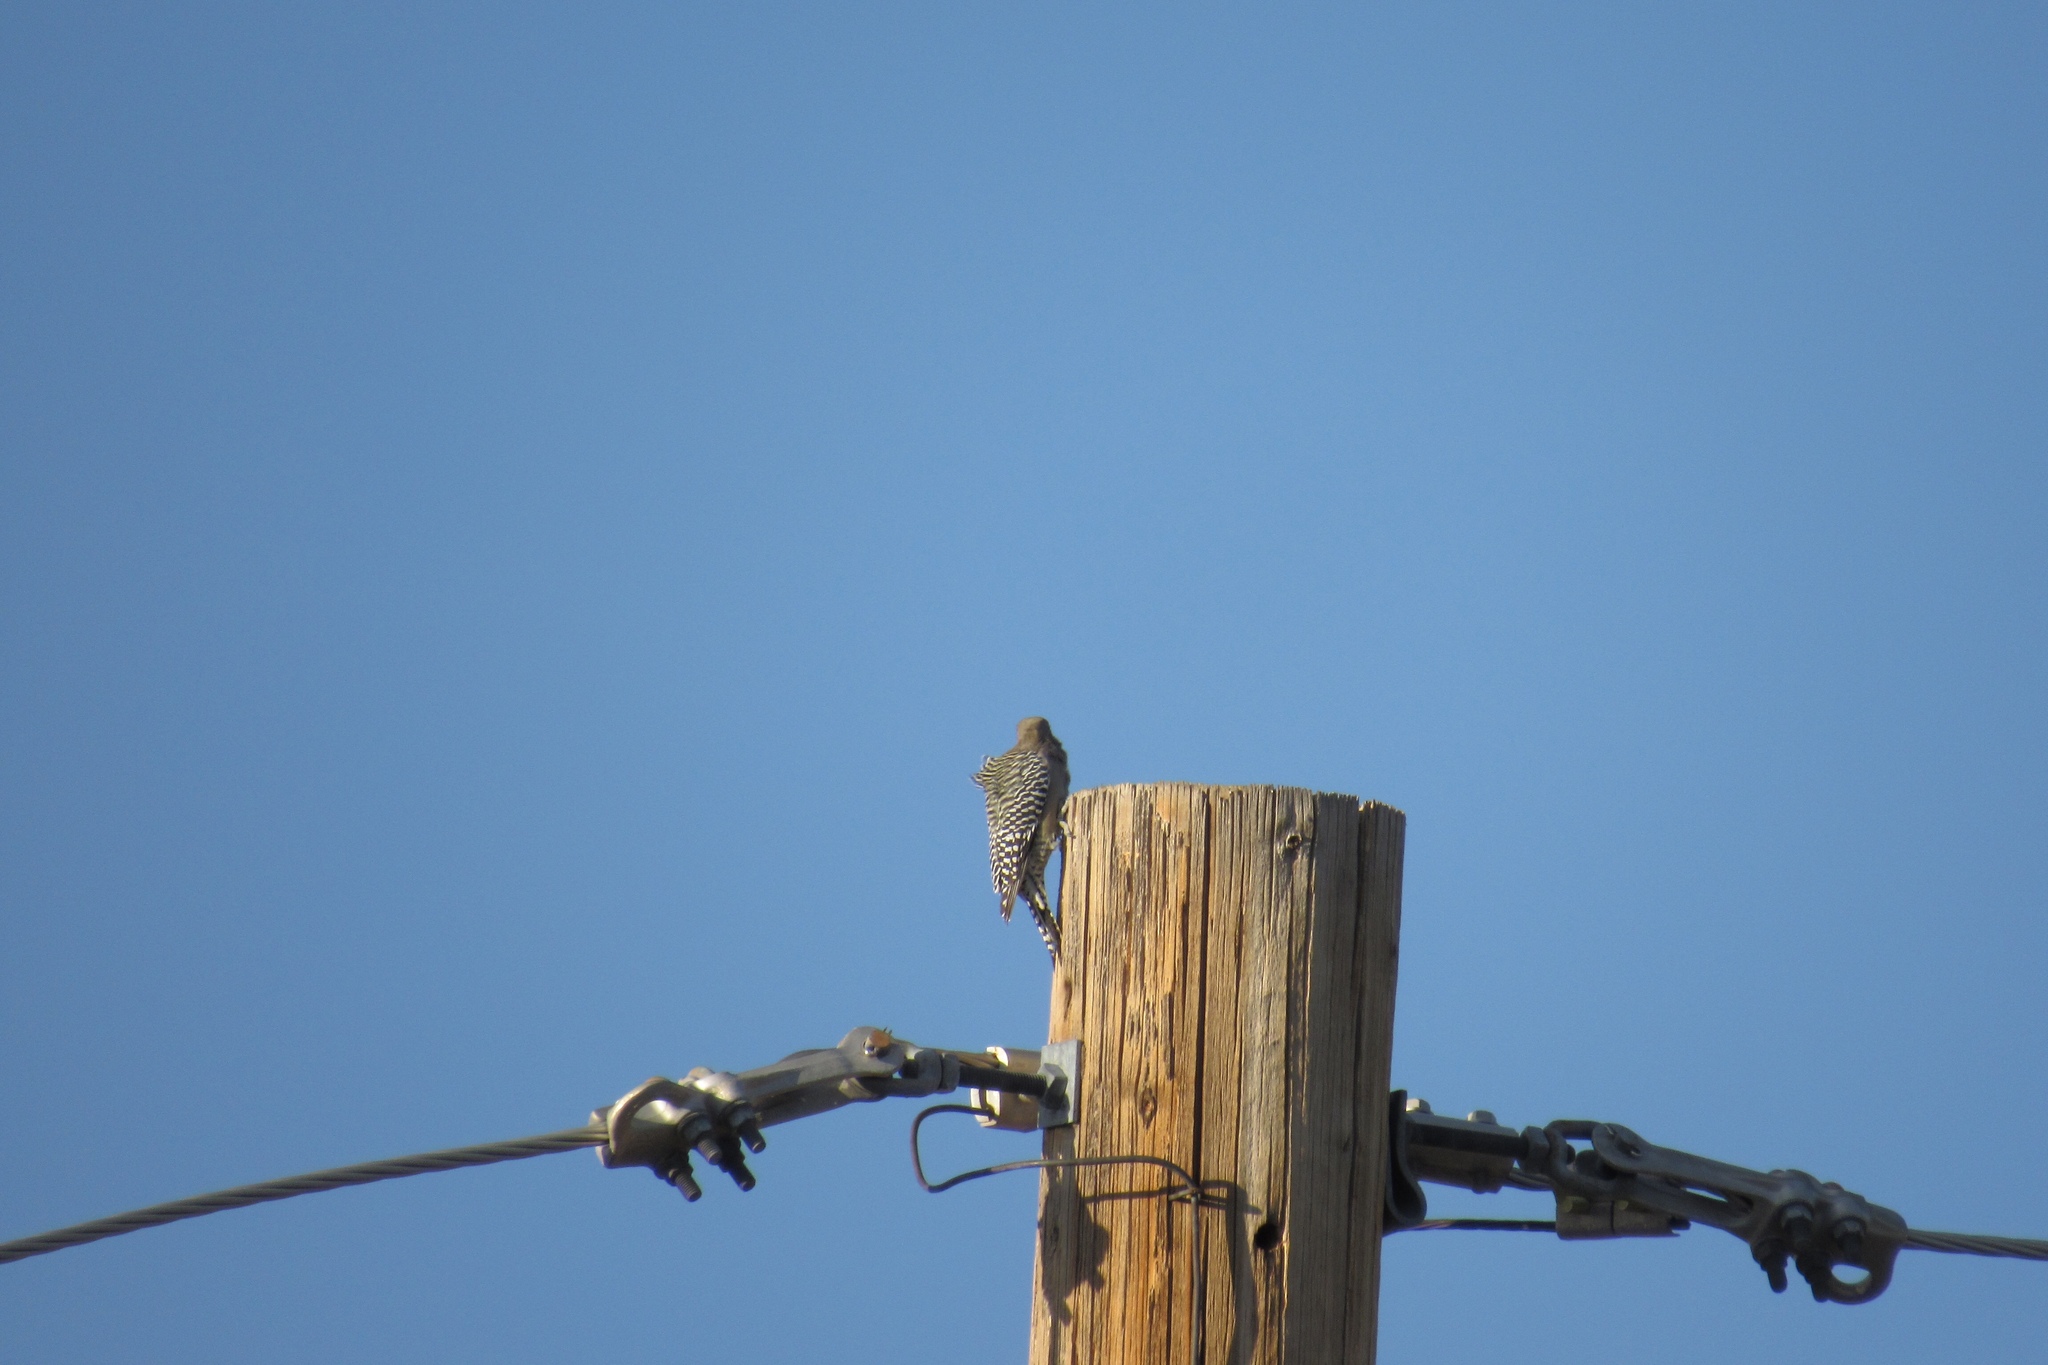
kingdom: Animalia
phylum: Chordata
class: Aves
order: Piciformes
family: Picidae
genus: Melanerpes
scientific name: Melanerpes uropygialis
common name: Gila woodpecker
